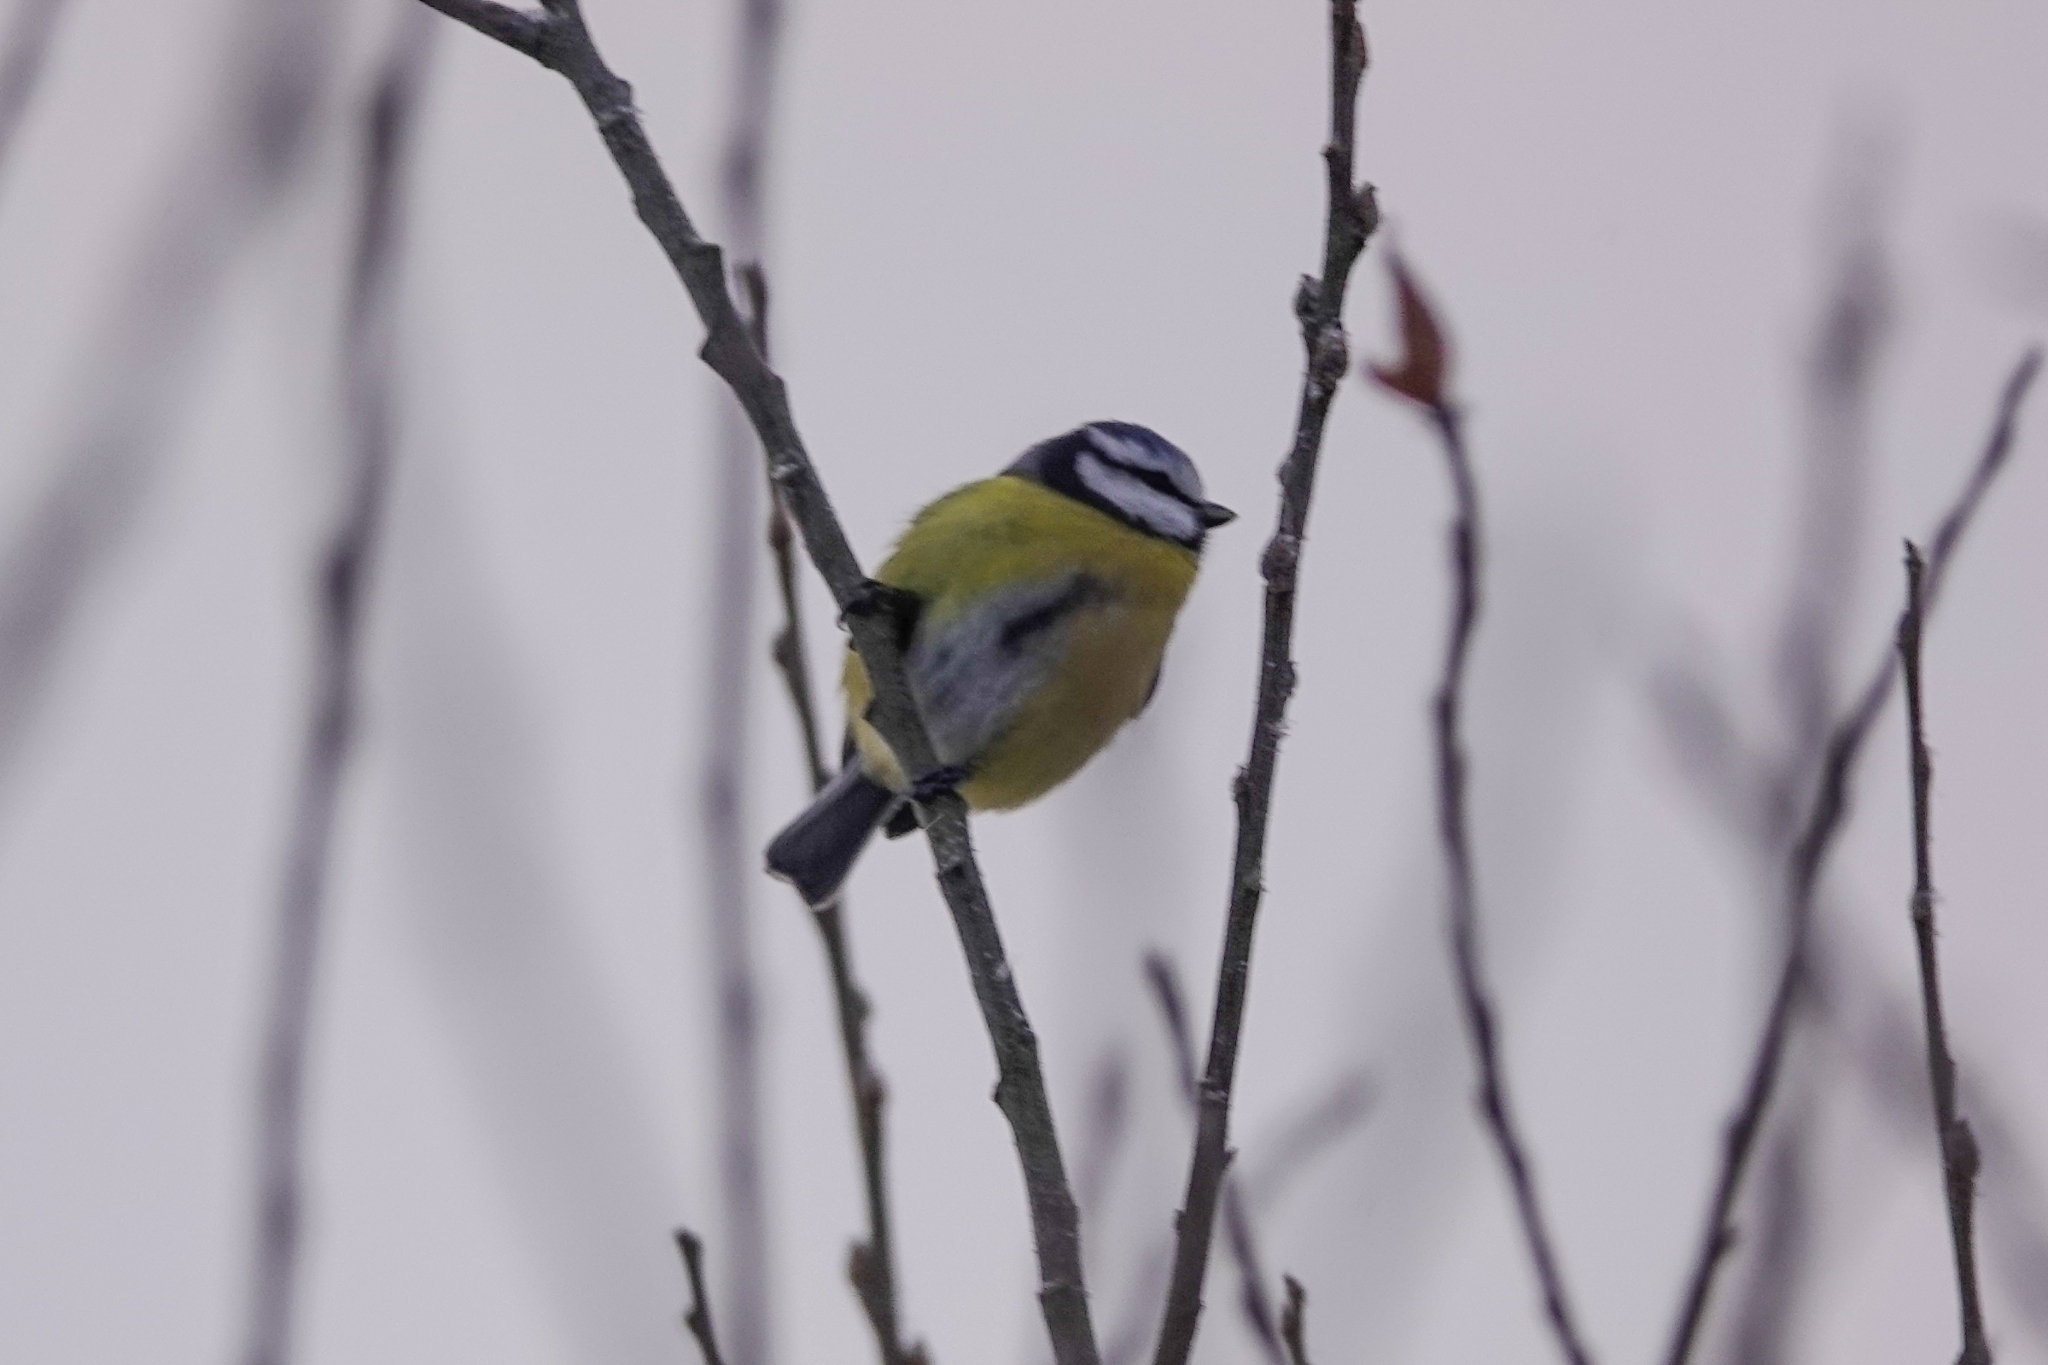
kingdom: Animalia
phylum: Chordata
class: Aves
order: Passeriformes
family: Paridae
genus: Cyanistes
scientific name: Cyanistes caeruleus
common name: Eurasian blue tit
